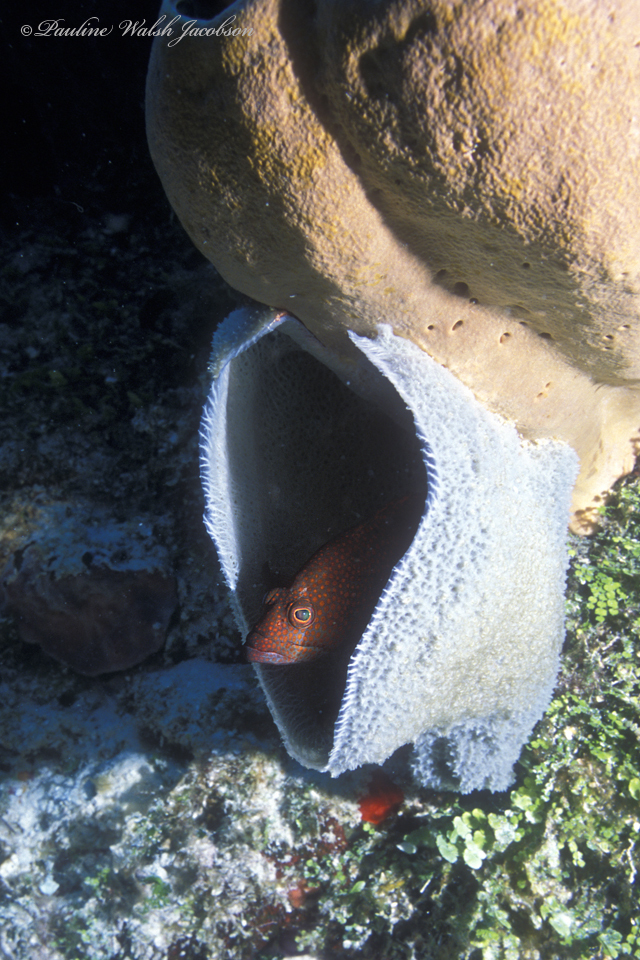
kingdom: Animalia
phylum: Chordata
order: Perciformes
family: Serranidae
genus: Cephalopholis
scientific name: Cephalopholis cruentata
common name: Graysby
